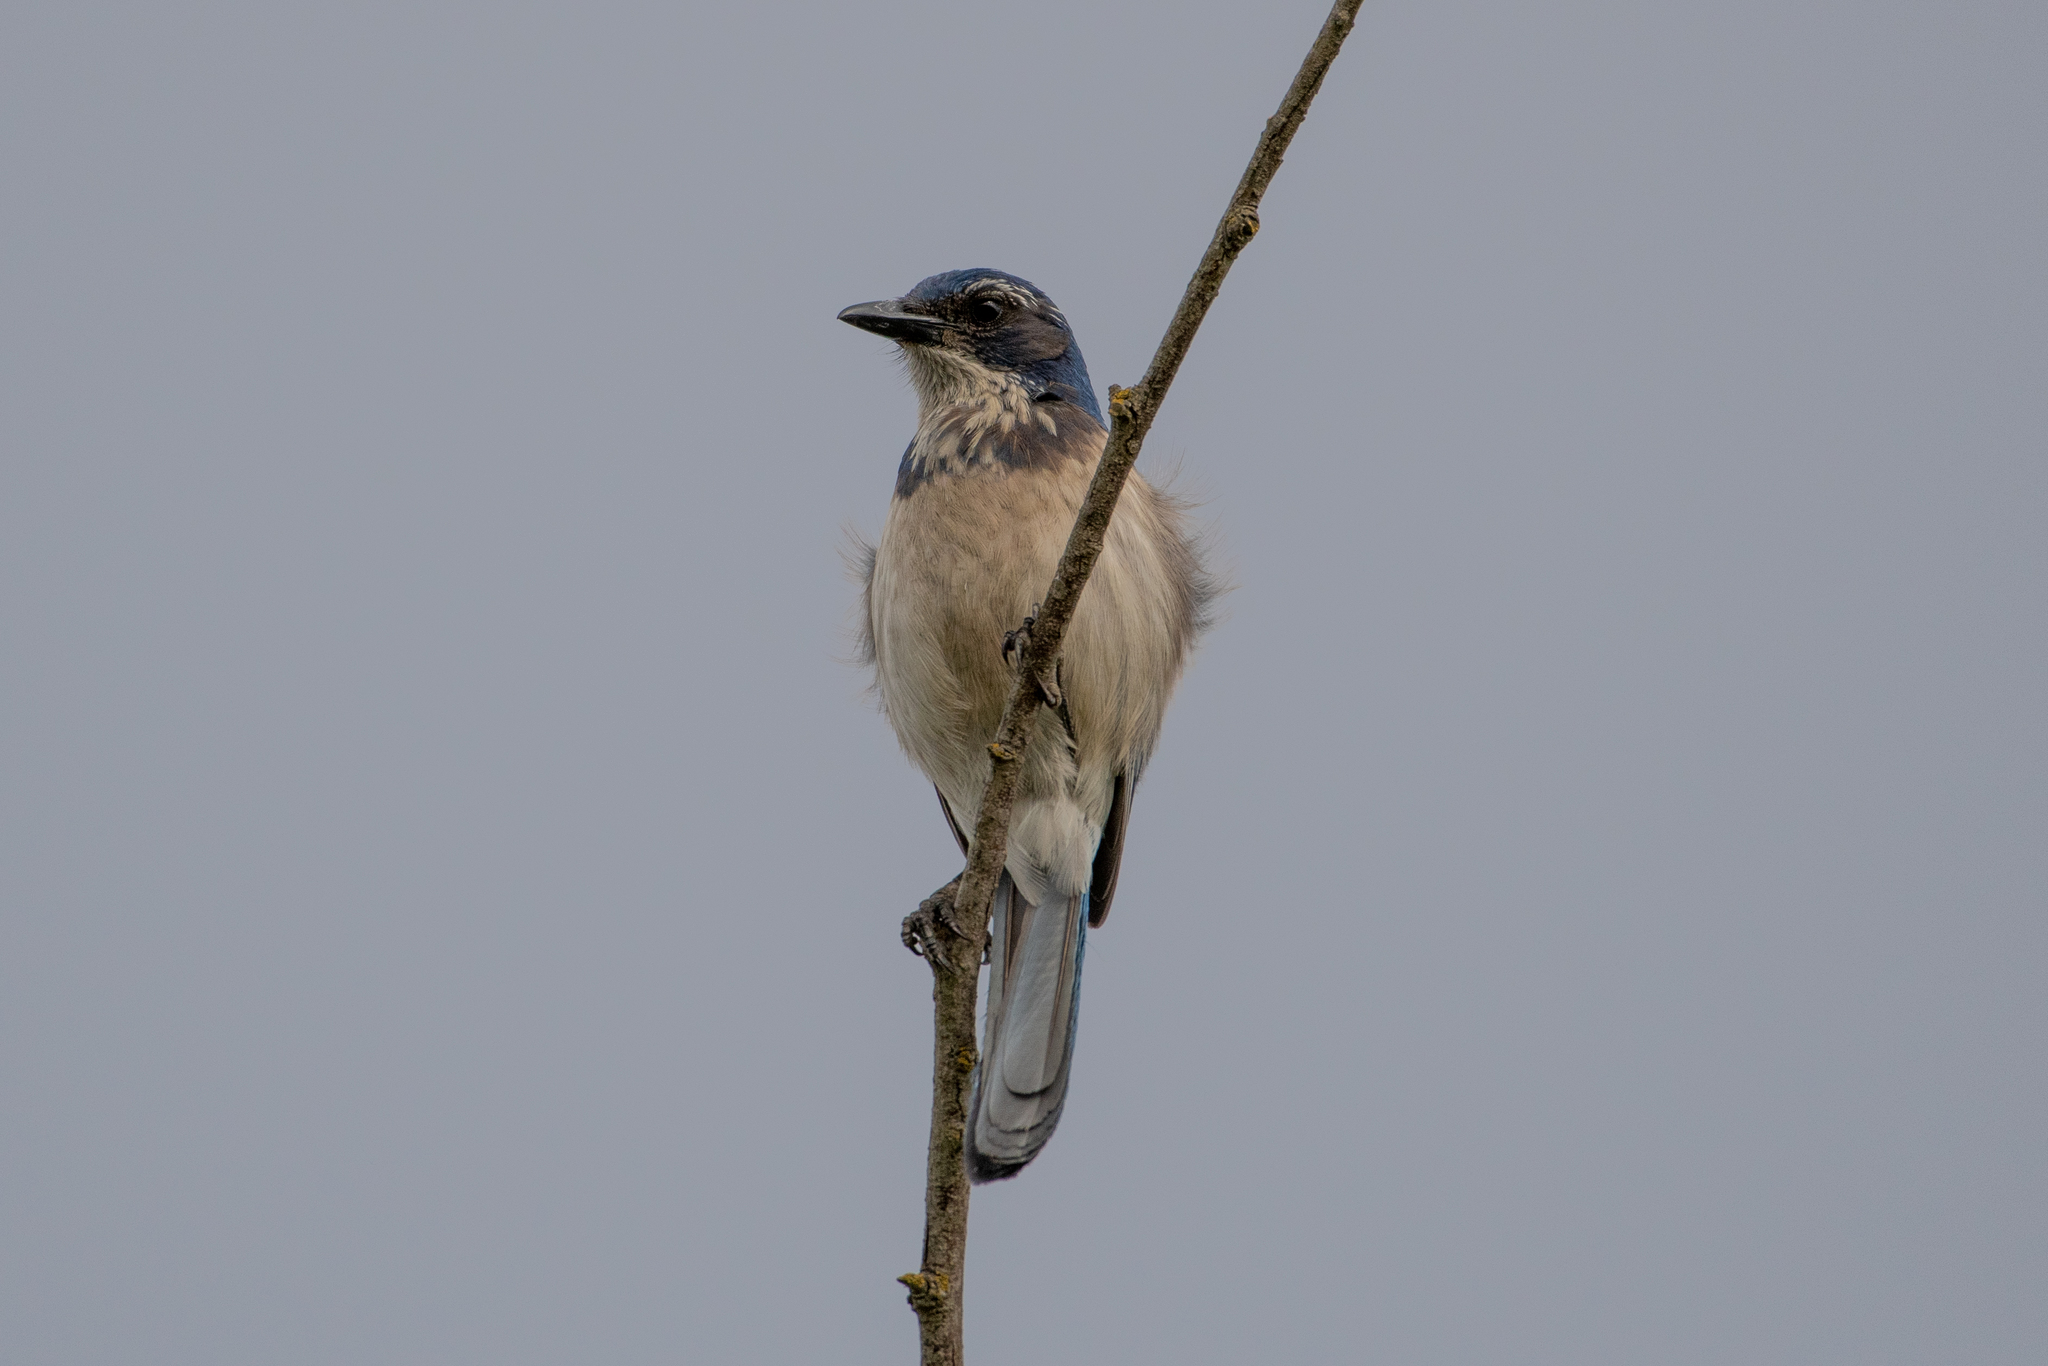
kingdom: Animalia
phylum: Chordata
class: Aves
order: Passeriformes
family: Corvidae
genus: Aphelocoma
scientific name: Aphelocoma californica
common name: California scrub-jay
